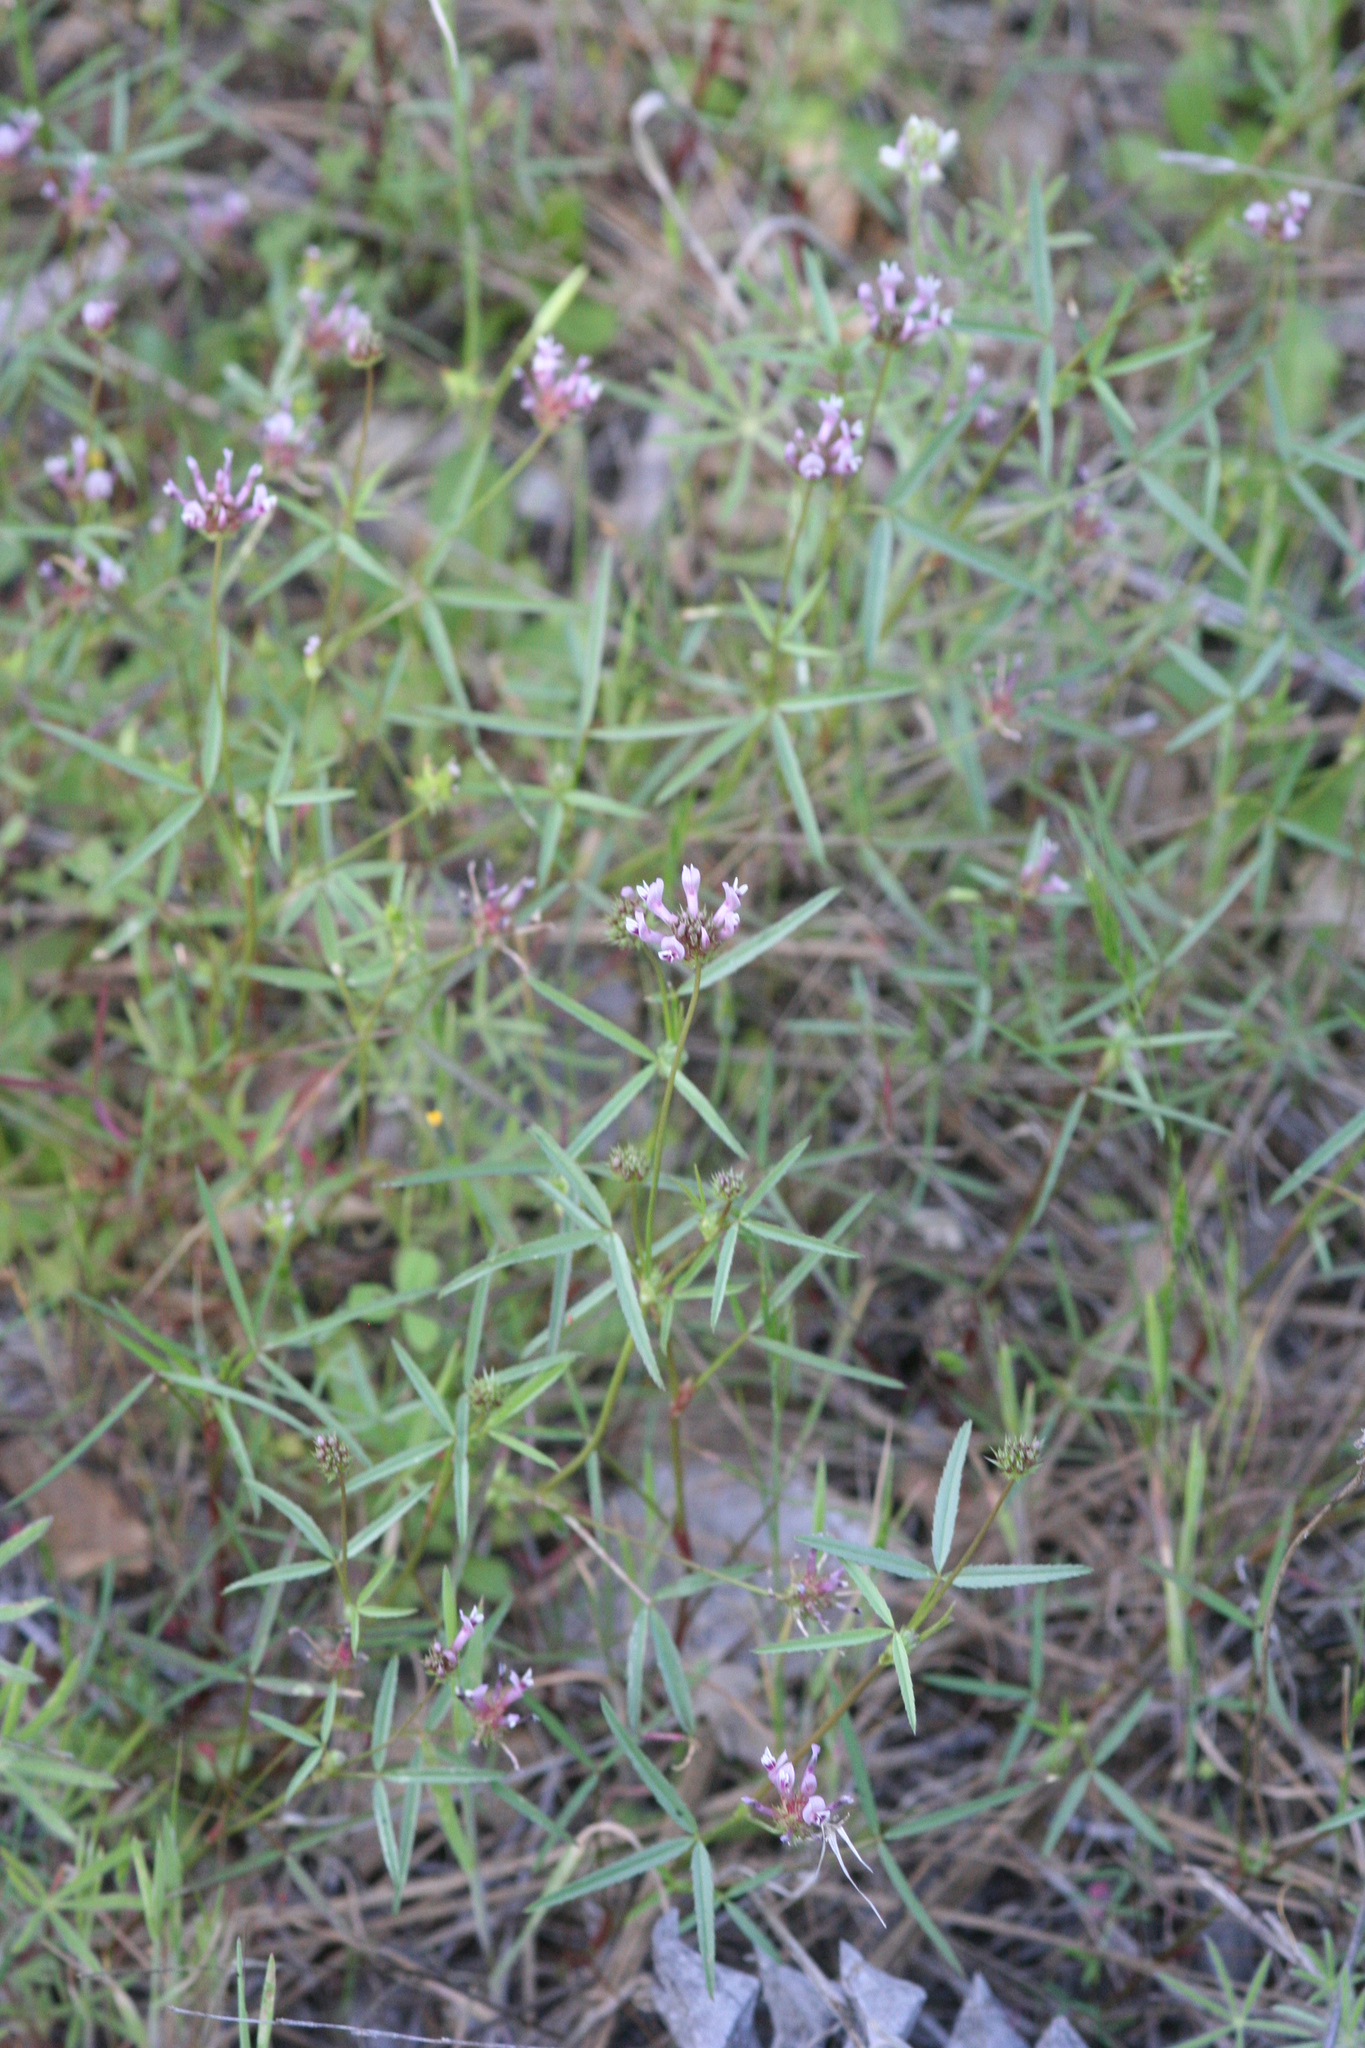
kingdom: Plantae
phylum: Tracheophyta
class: Magnoliopsida
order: Fabales
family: Fabaceae
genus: Trifolium
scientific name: Trifolium willdenovii
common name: Tomcat clover
